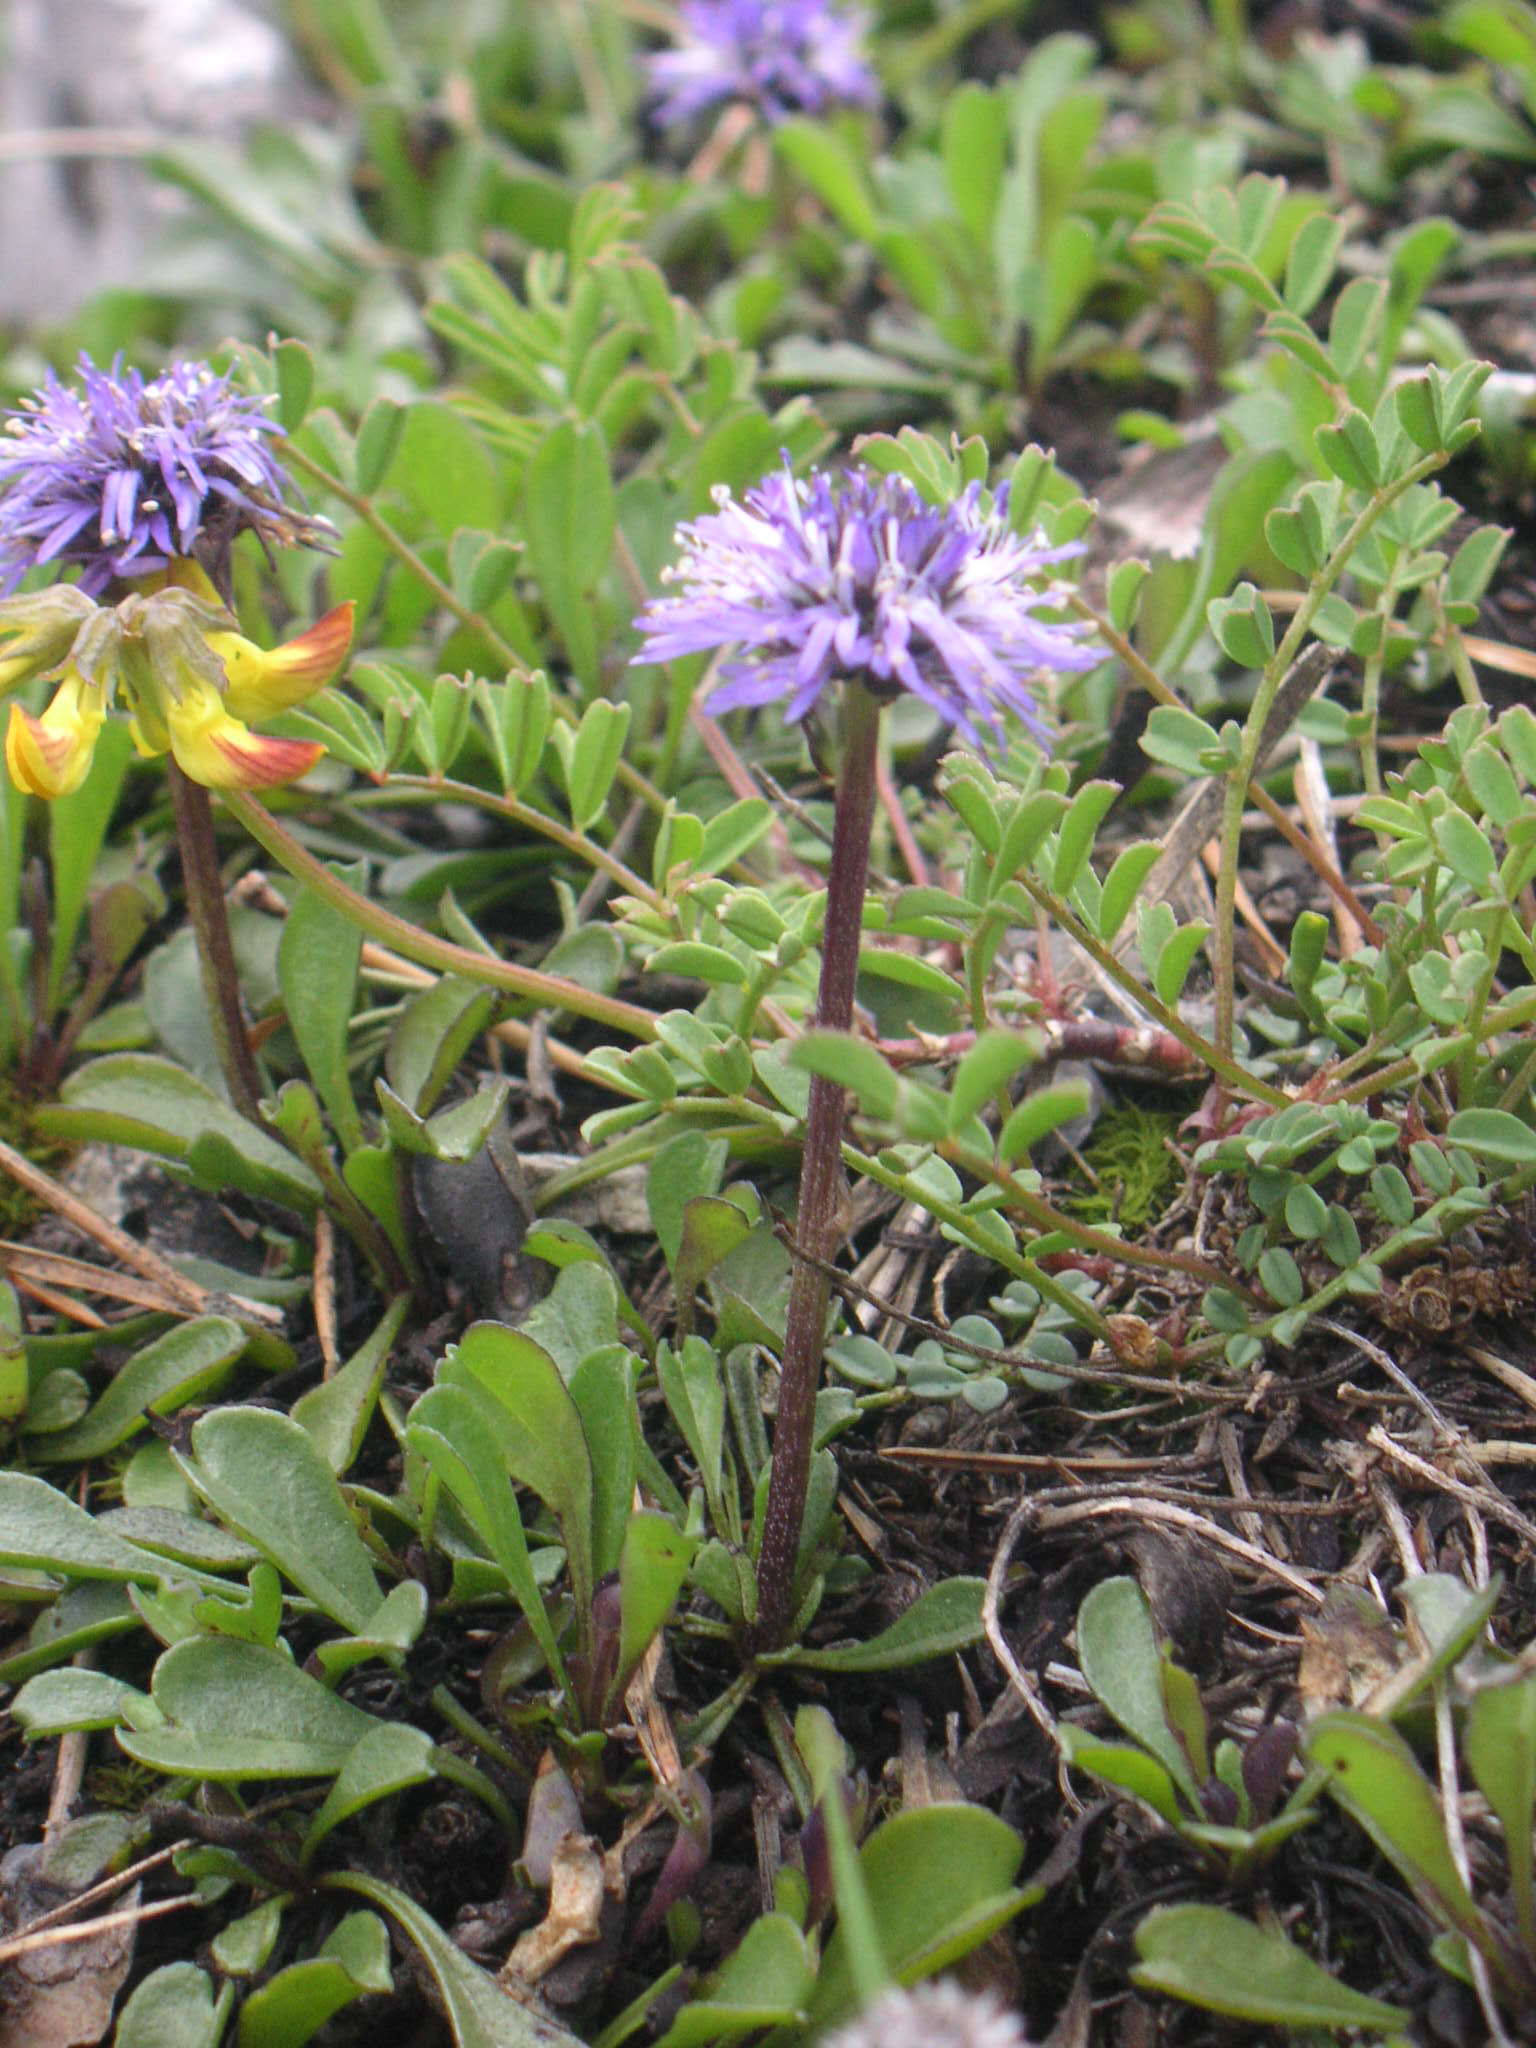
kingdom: Plantae
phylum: Tracheophyta
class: Magnoliopsida
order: Lamiales
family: Plantaginaceae
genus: Globularia
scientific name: Globularia cordifolia
